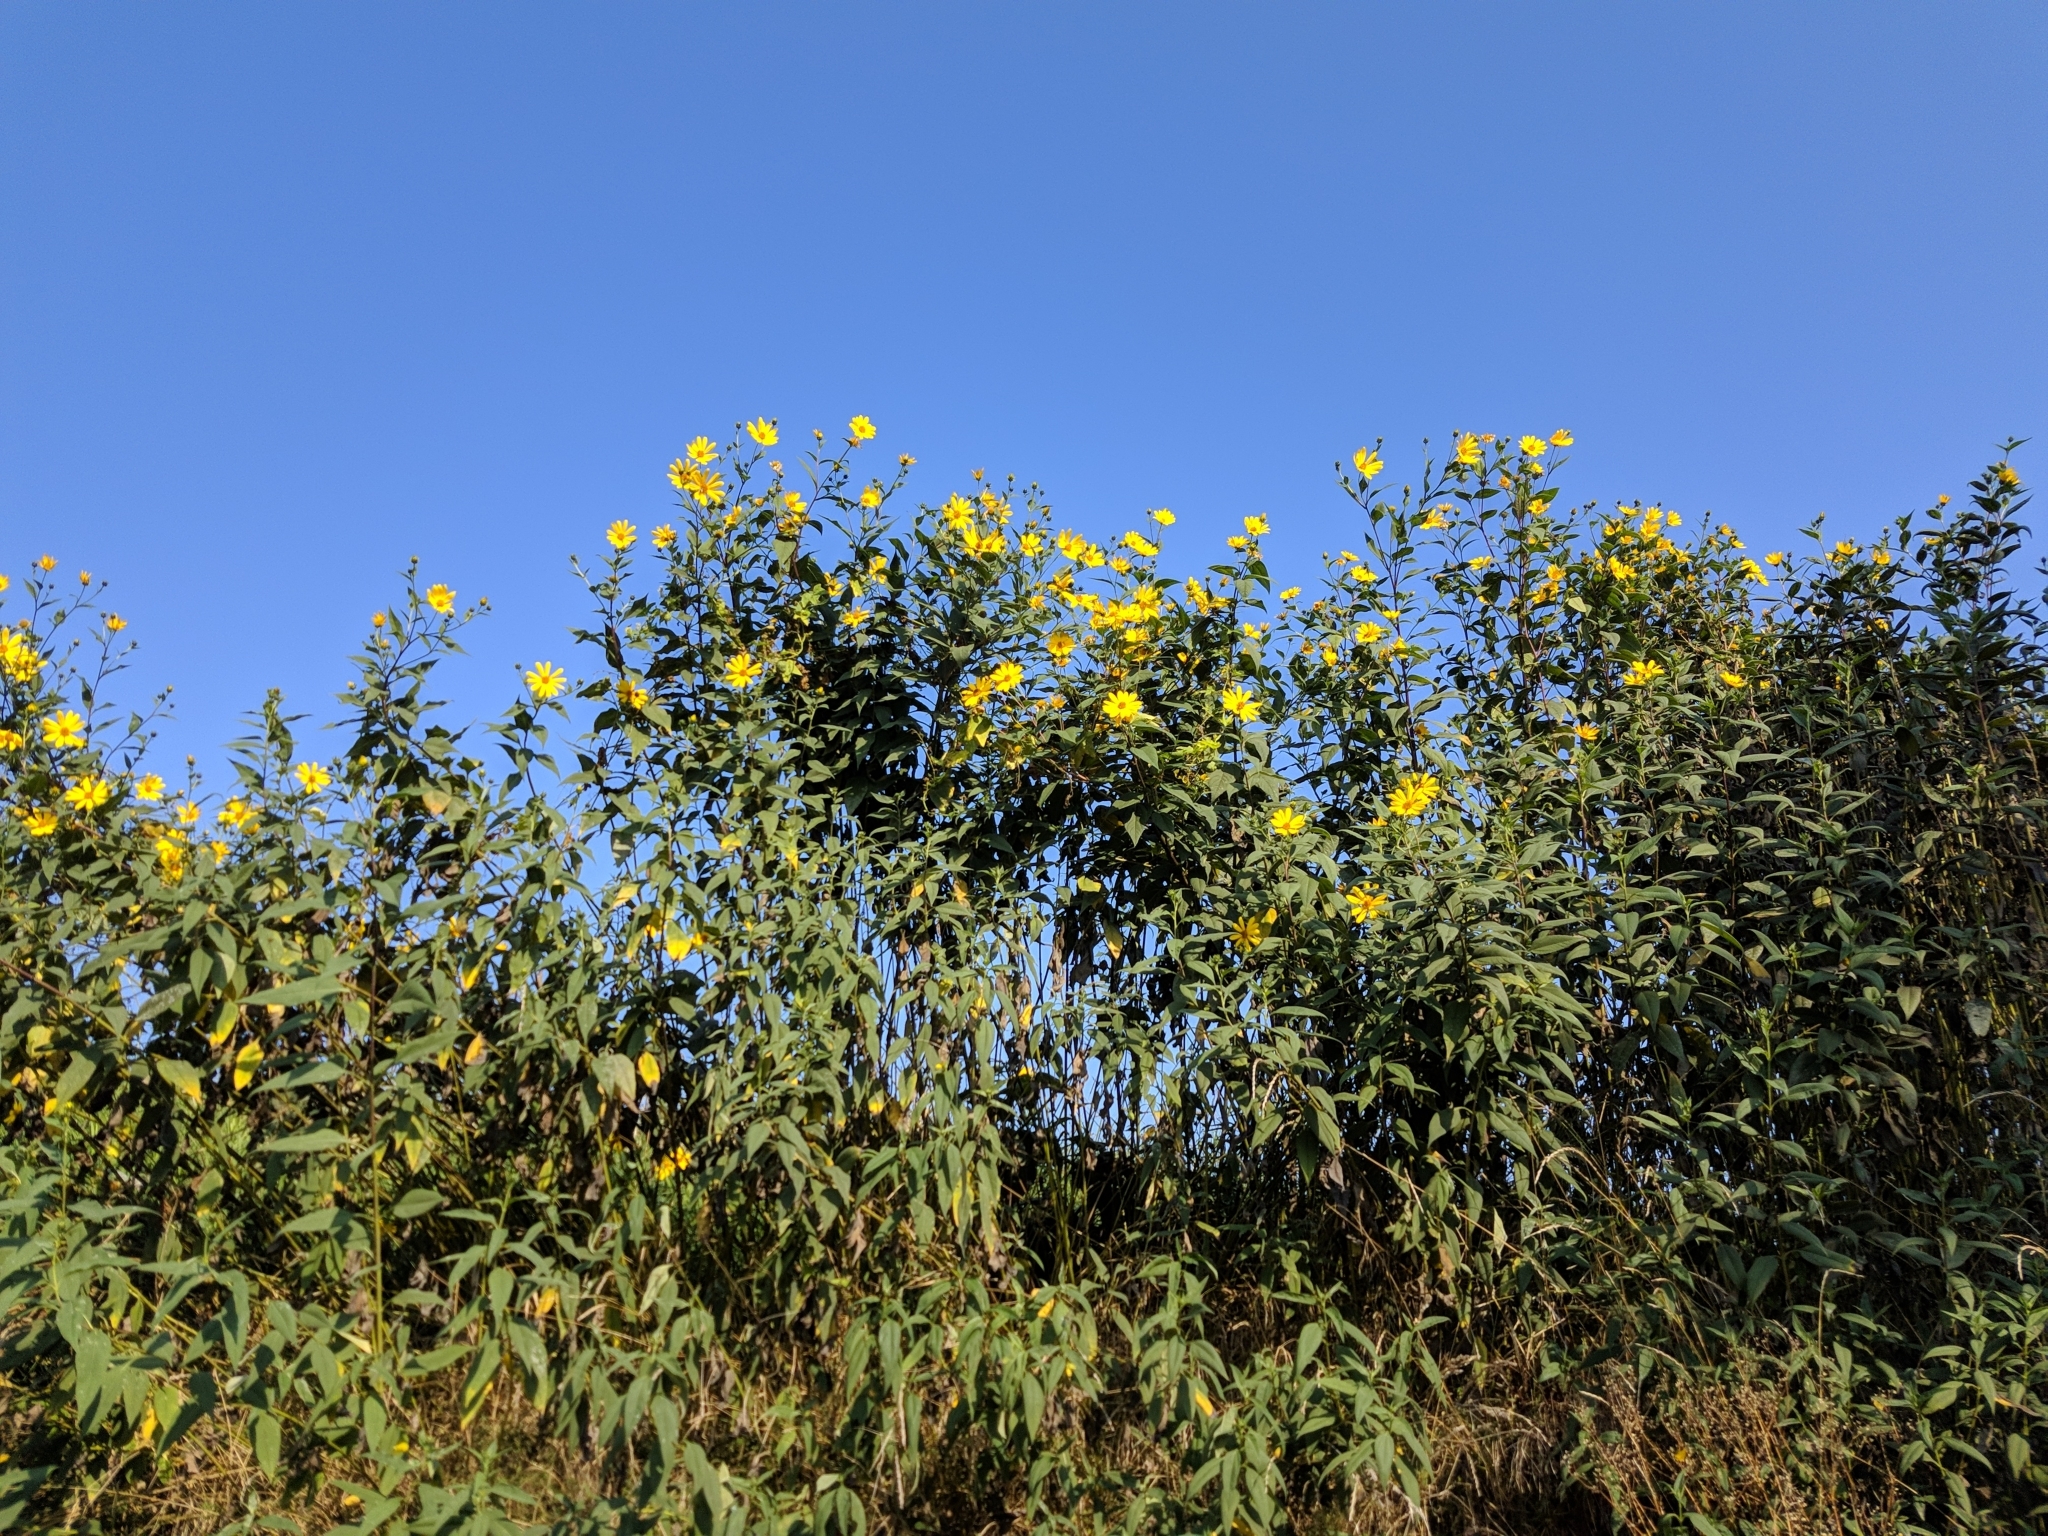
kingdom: Plantae
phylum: Tracheophyta
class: Magnoliopsida
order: Asterales
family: Asteraceae
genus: Helianthus
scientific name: Helianthus tuberosus
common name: Jerusalem artichoke
